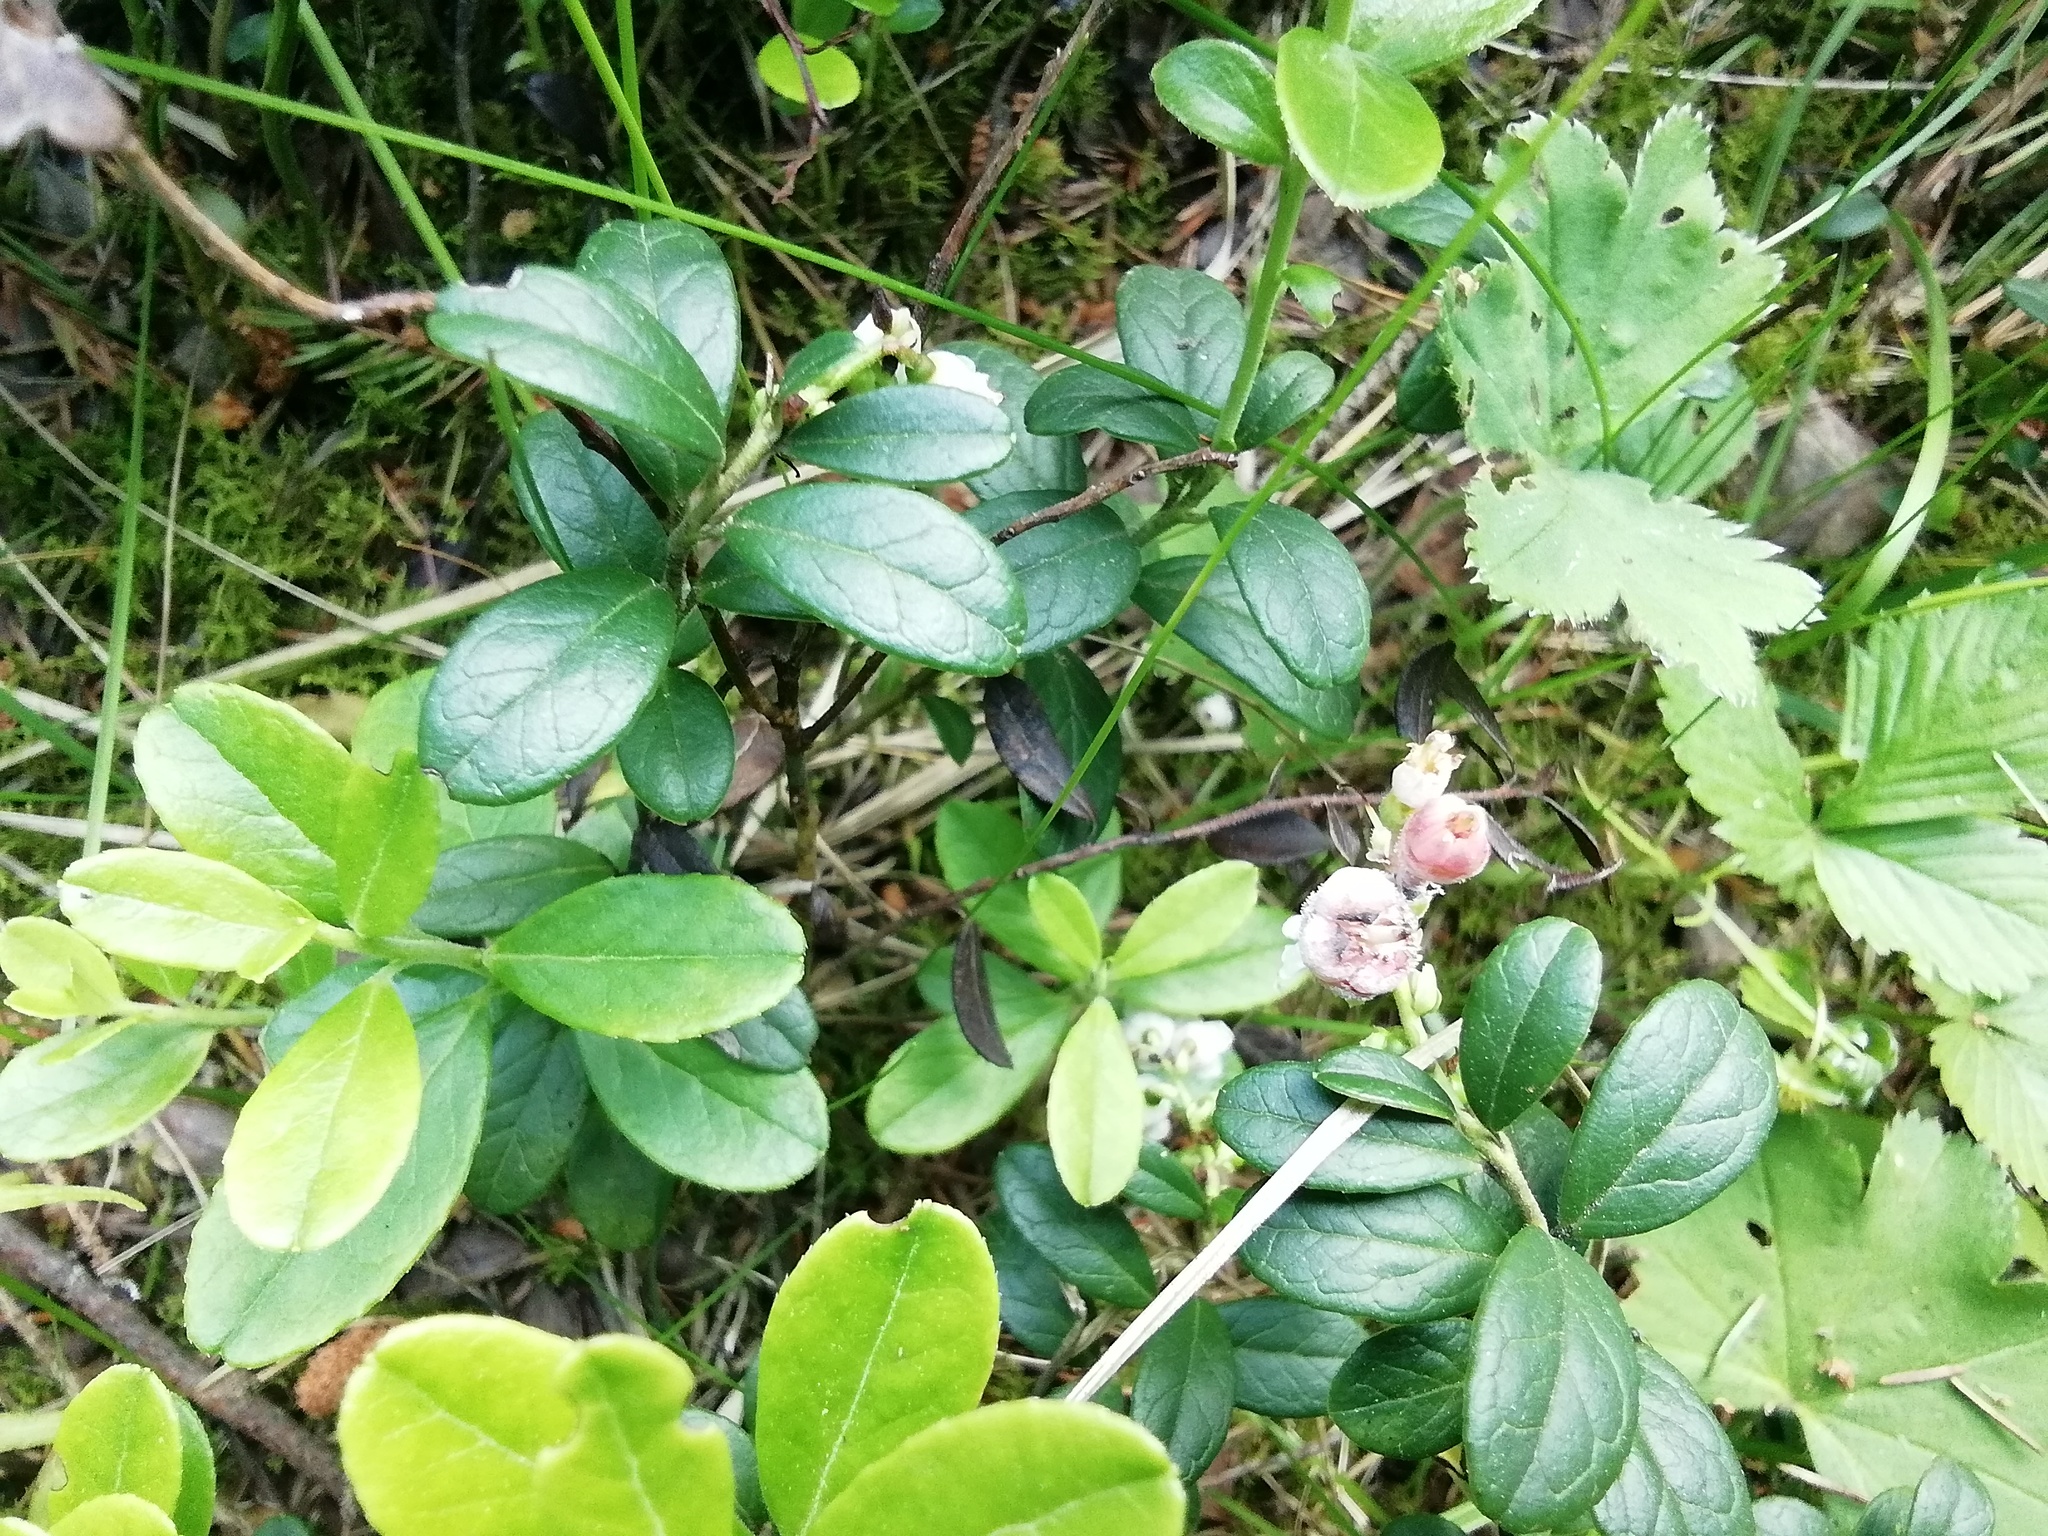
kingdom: Plantae
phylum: Tracheophyta
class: Magnoliopsida
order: Ericales
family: Ericaceae
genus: Vaccinium
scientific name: Vaccinium vitis-idaea
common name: Cowberry
